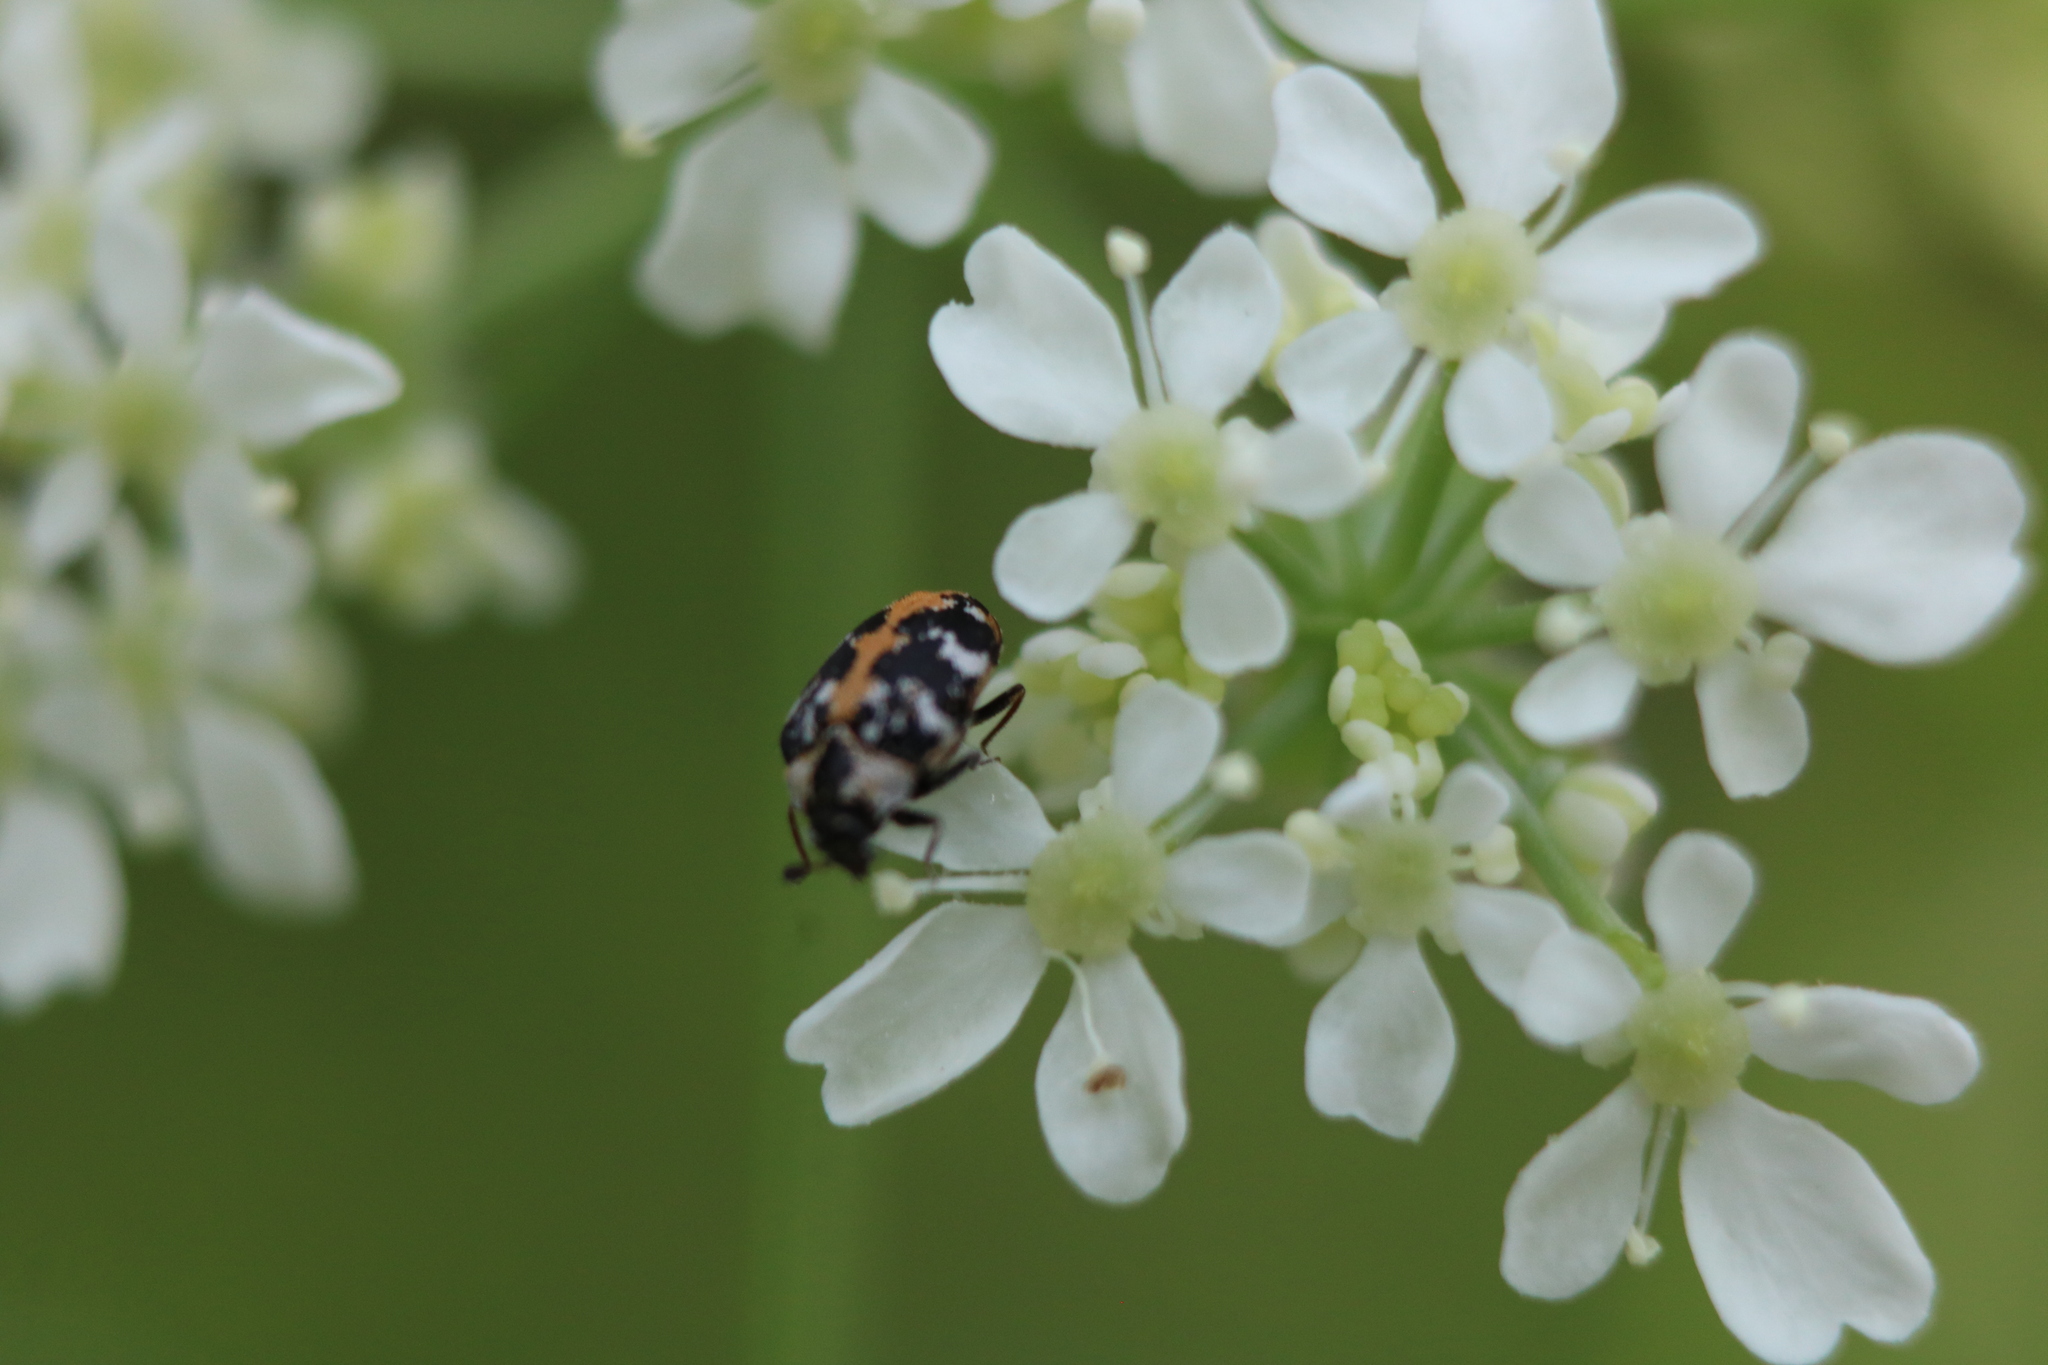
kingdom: Animalia
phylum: Arthropoda
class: Insecta
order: Coleoptera
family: Dermestidae
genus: Anthrenus
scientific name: Anthrenus scrophulariae
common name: Buffalo carpet beetle
